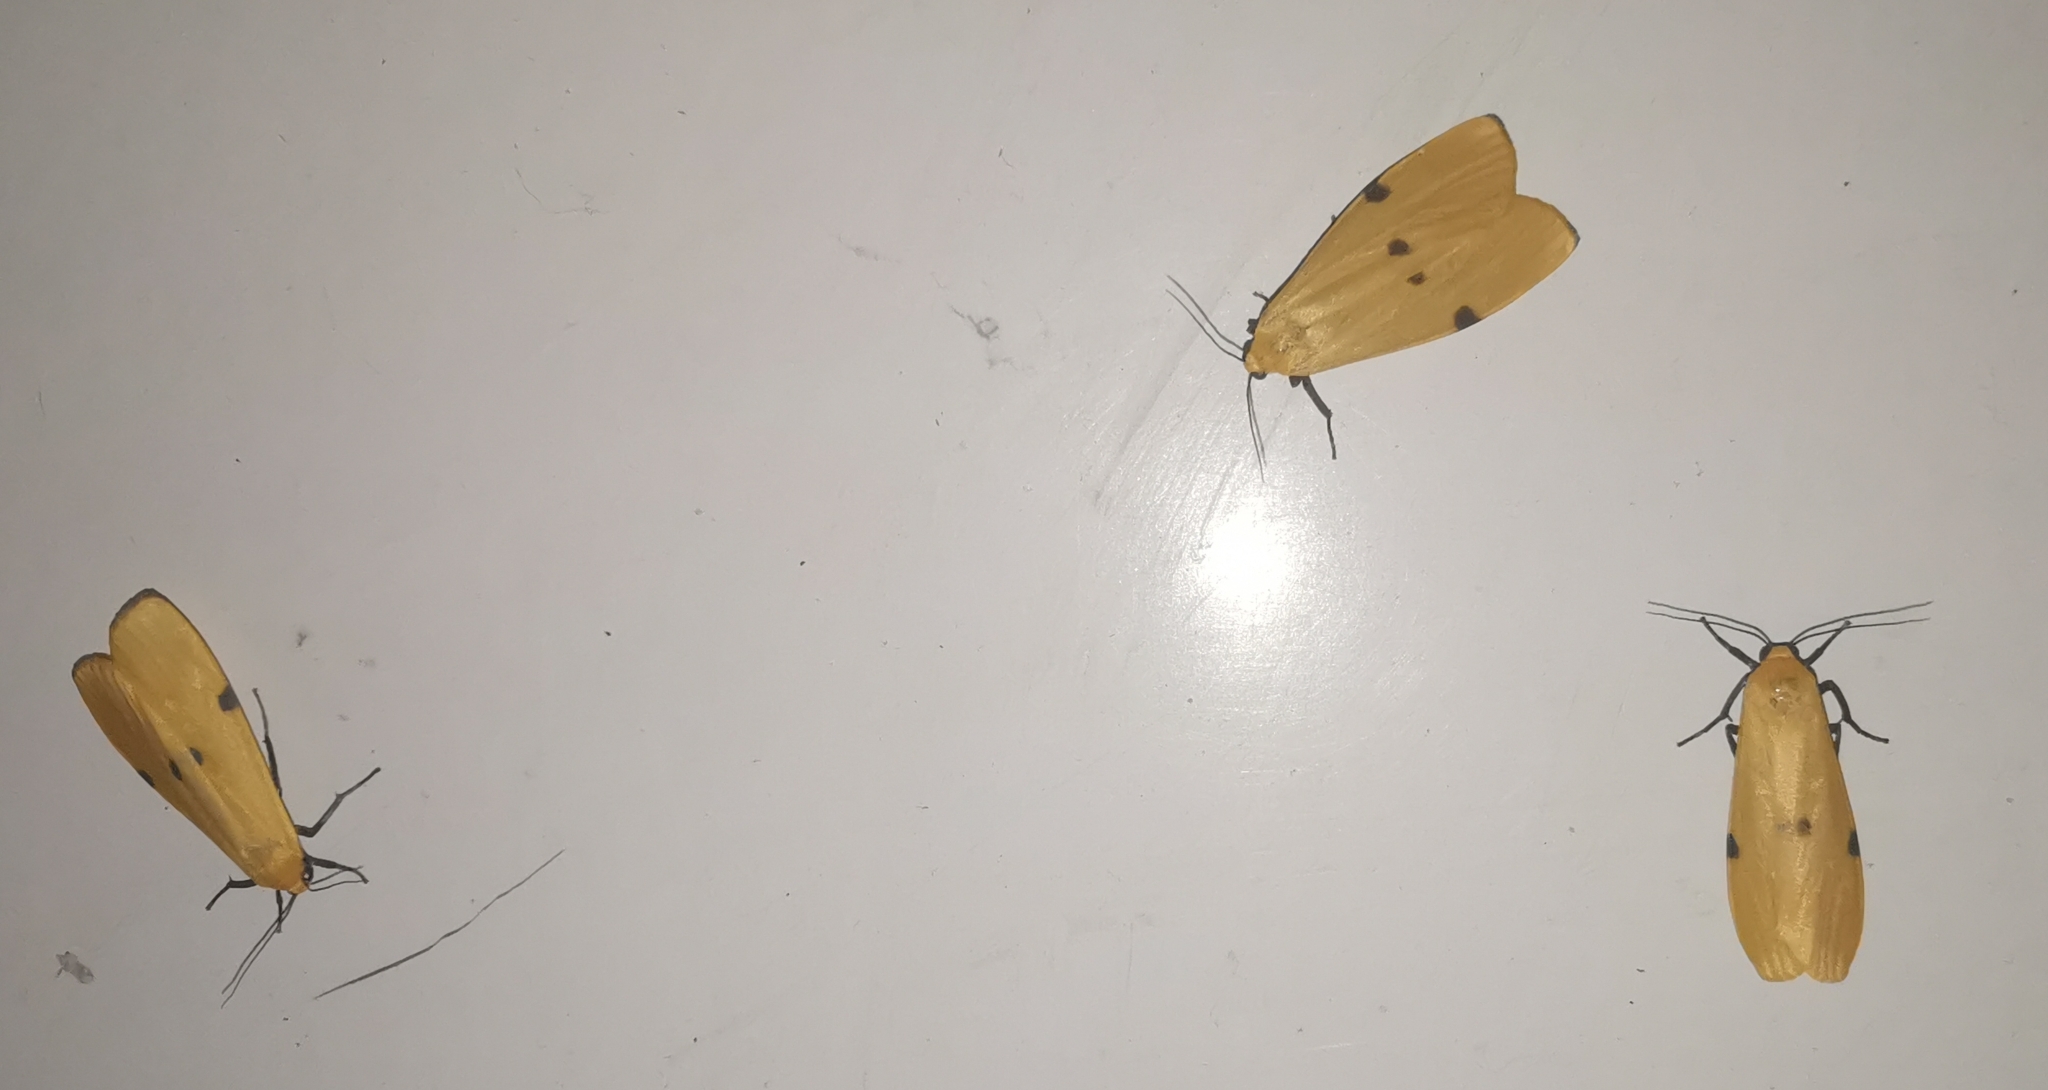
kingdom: Animalia
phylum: Arthropoda
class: Insecta
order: Lepidoptera
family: Erebidae
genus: Lithosia
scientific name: Lithosia quadra
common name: Four-spotted footman
